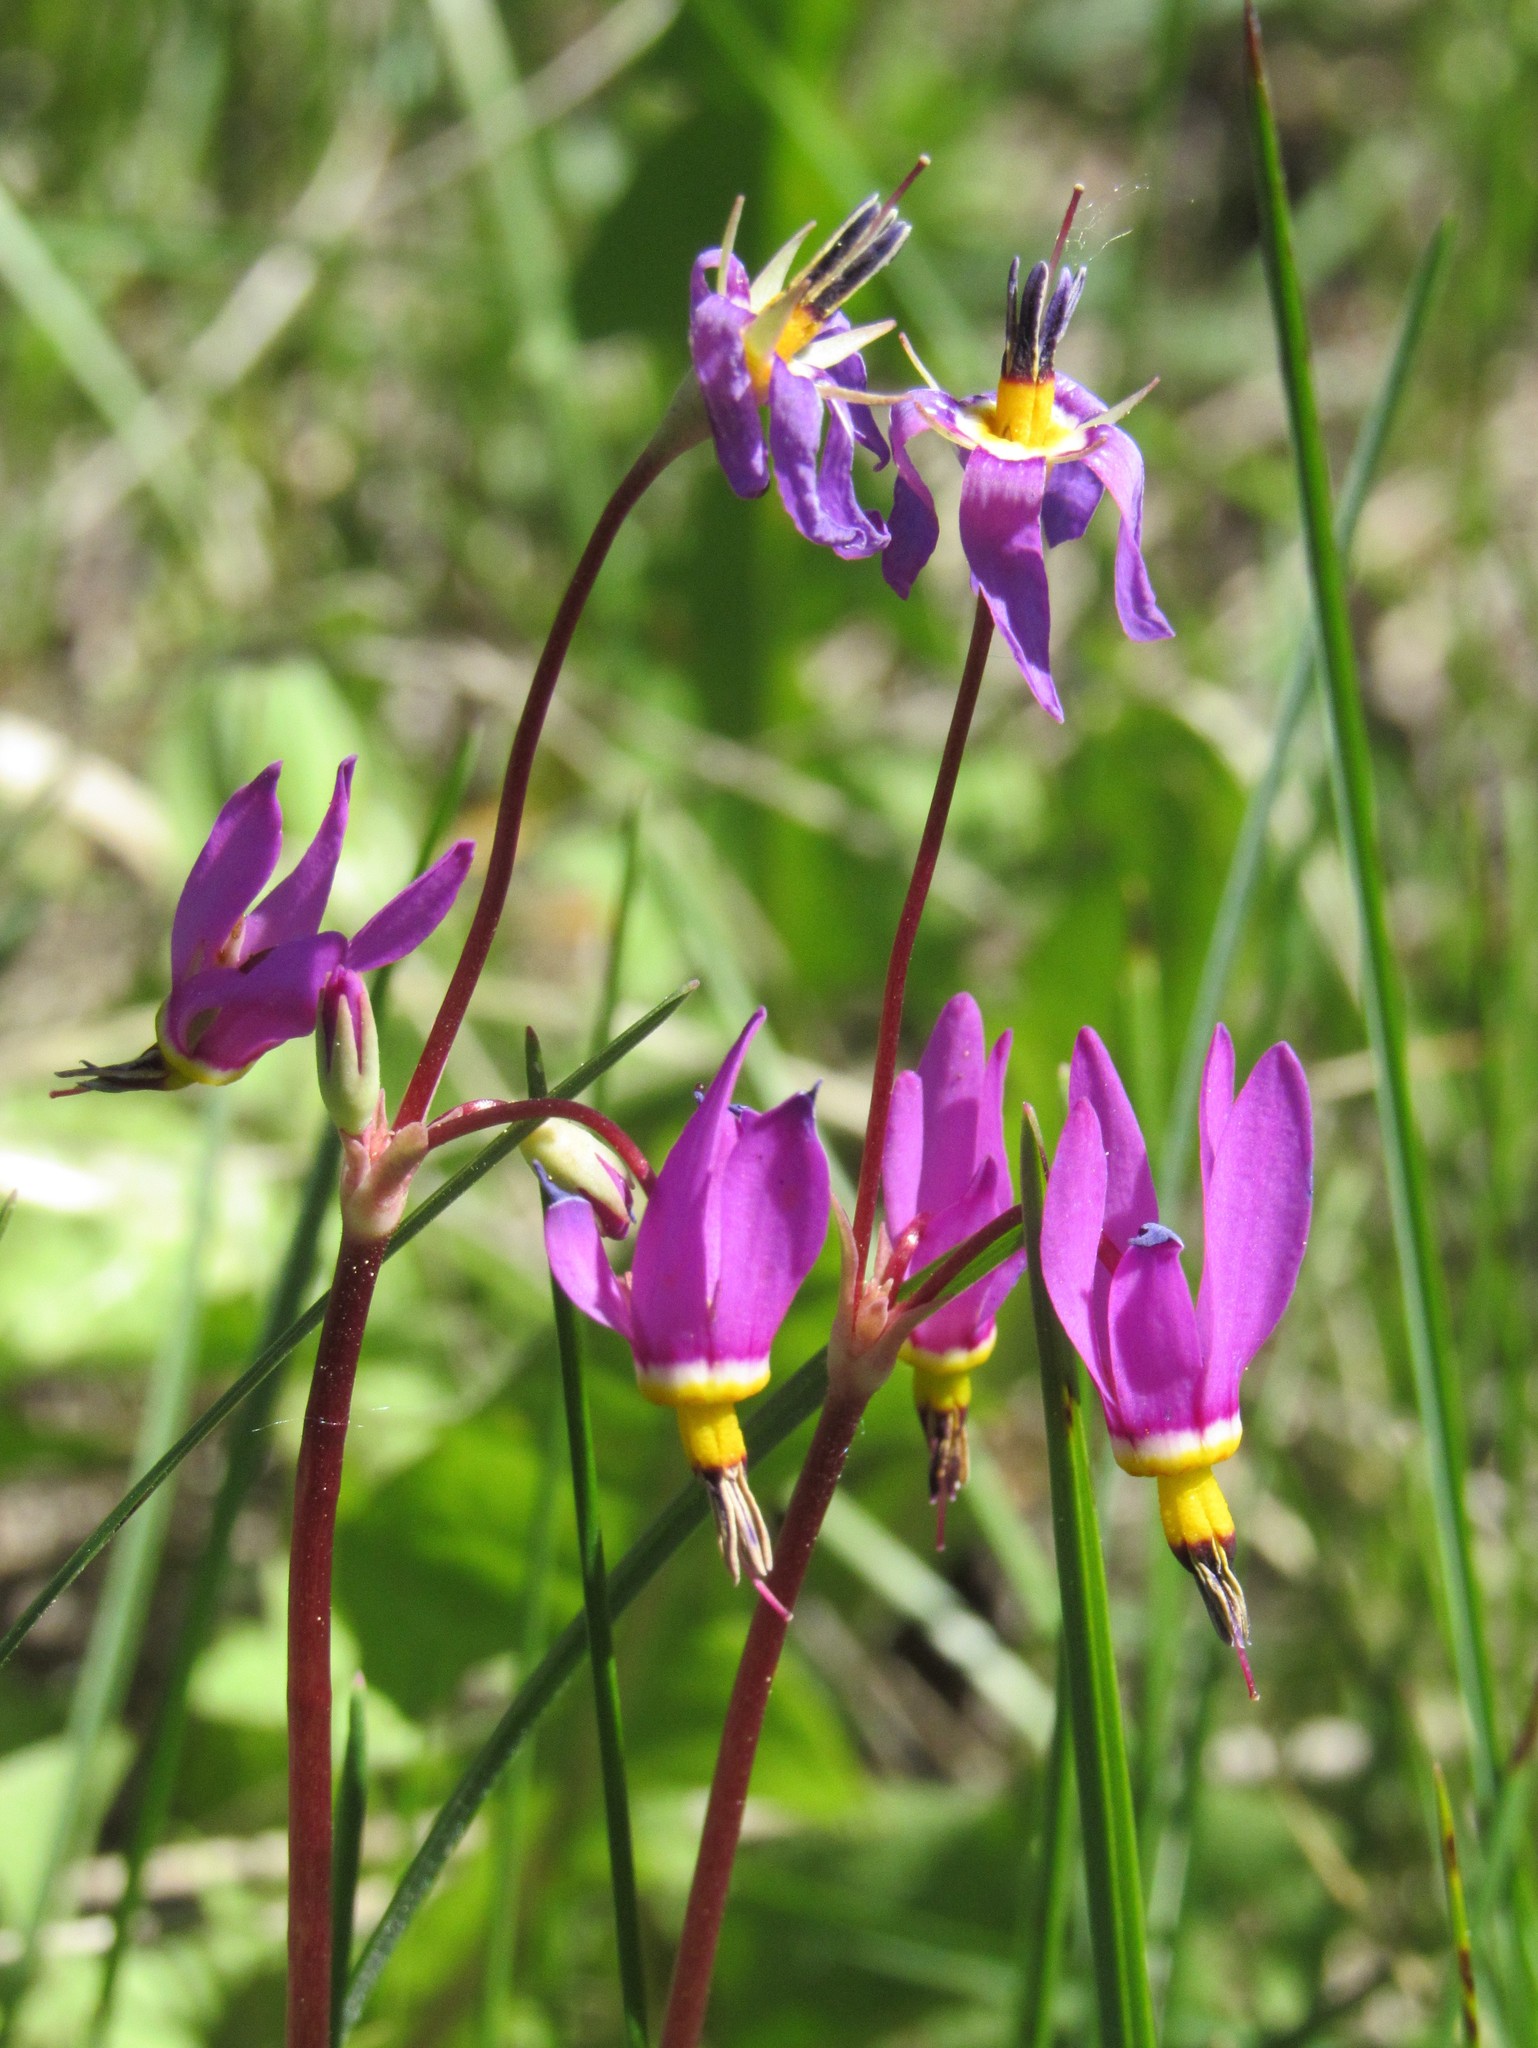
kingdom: Plantae
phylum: Tracheophyta
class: Magnoliopsida
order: Ericales
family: Primulaceae
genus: Dodecatheon
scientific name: Dodecatheon pulchellum
